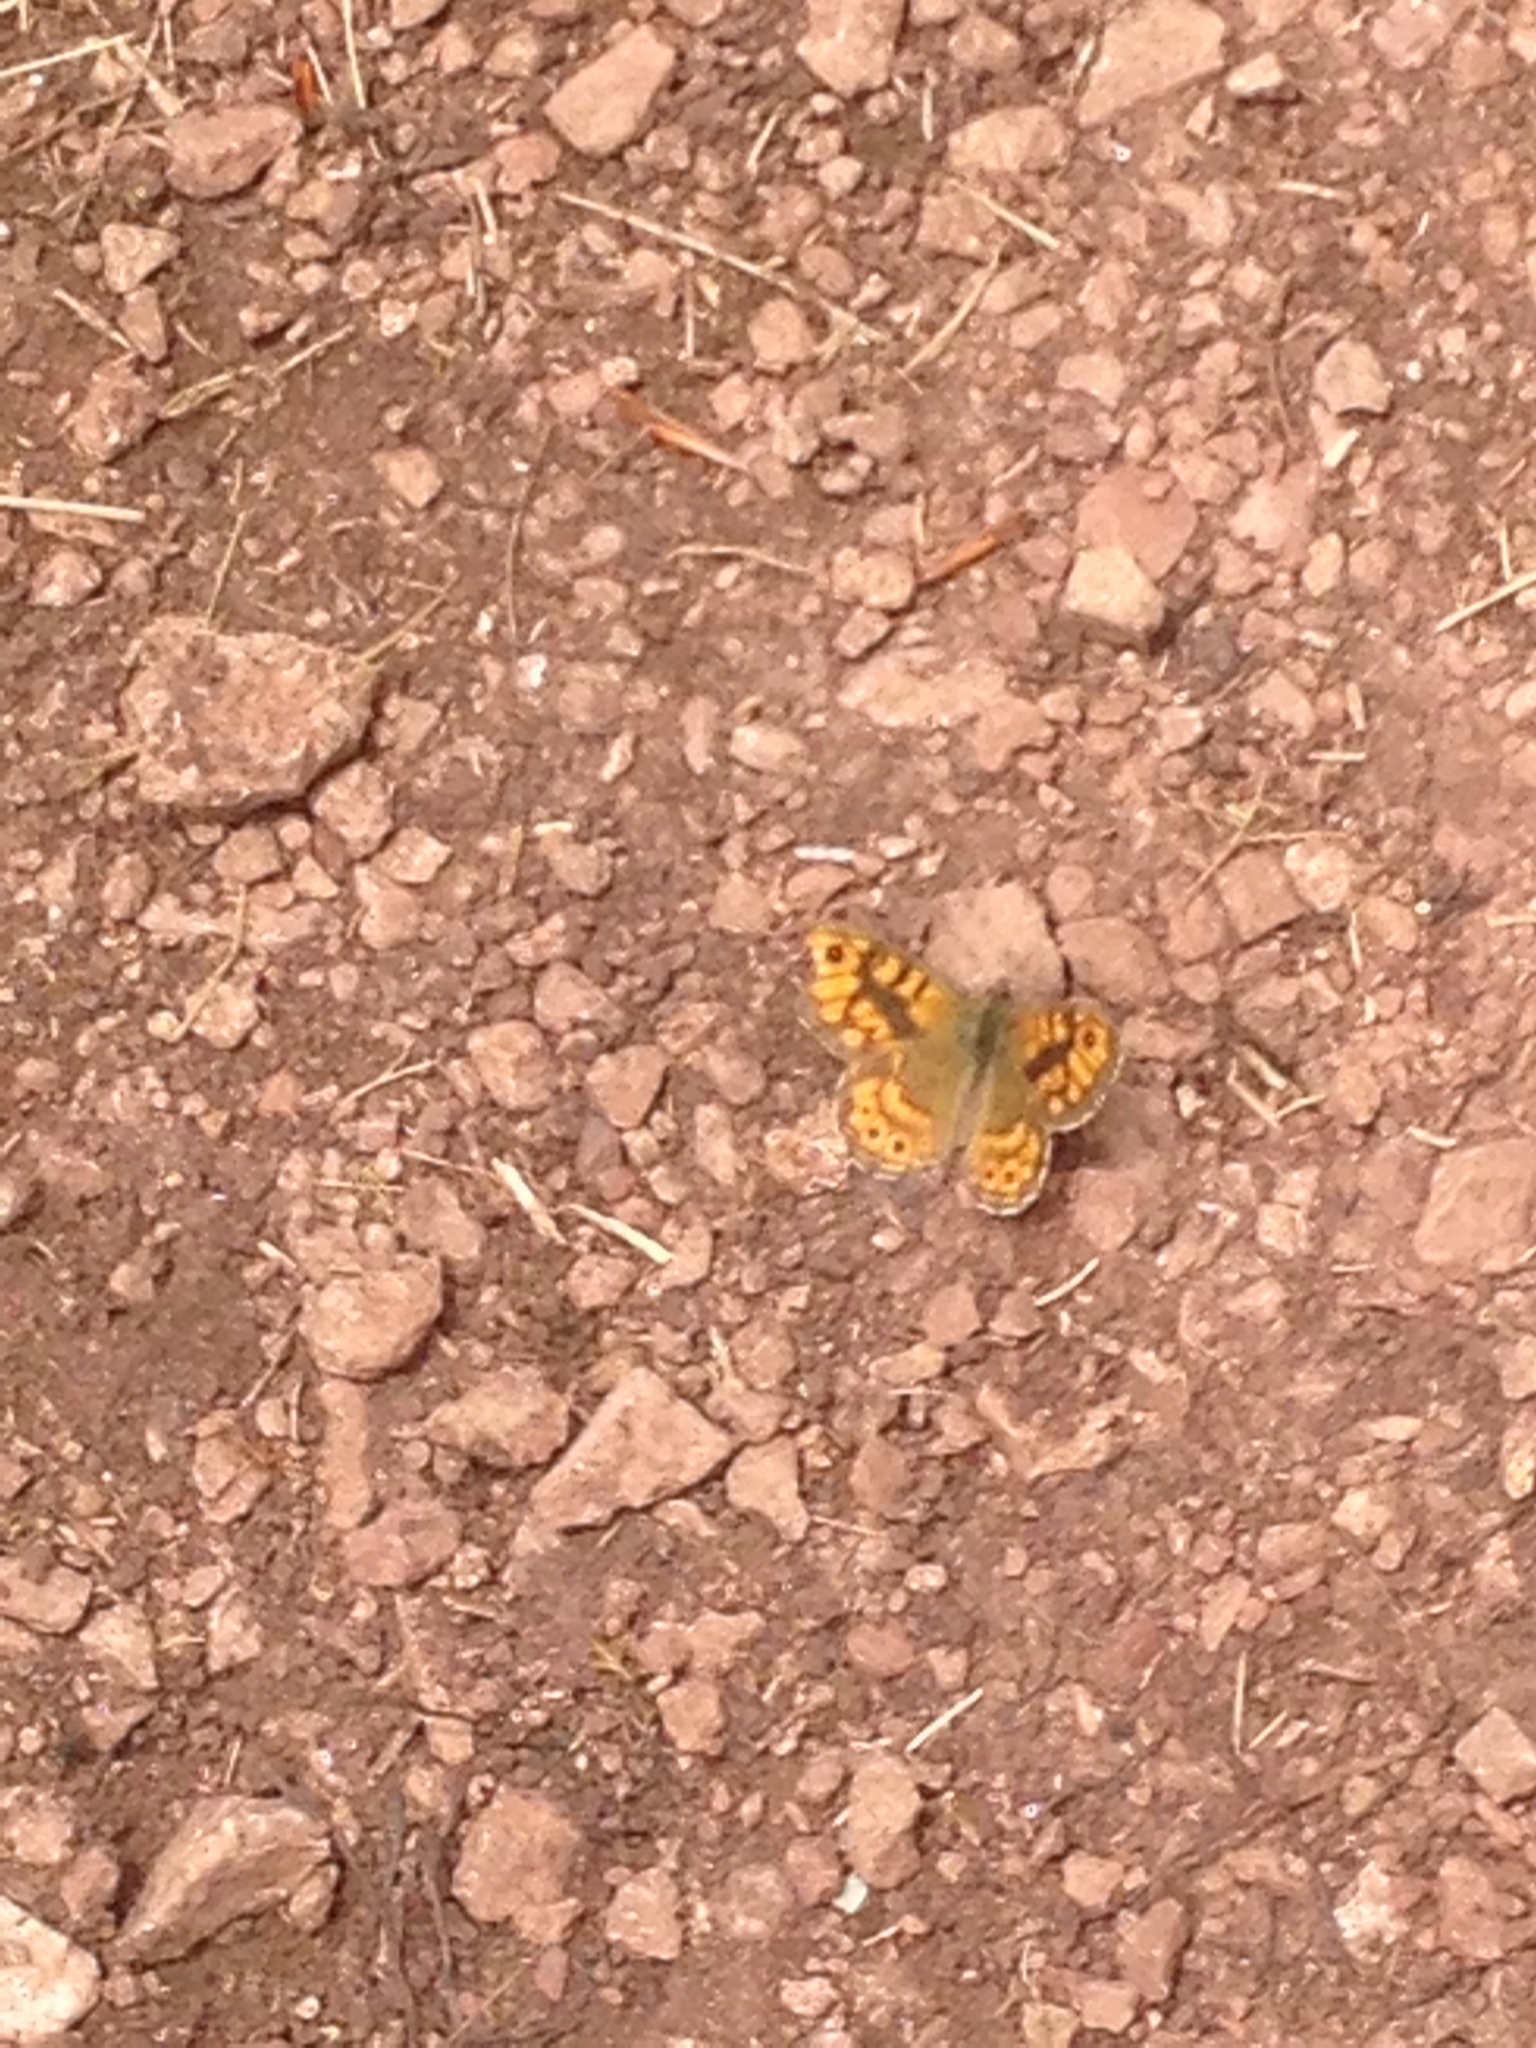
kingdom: Animalia
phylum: Arthropoda
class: Insecta
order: Lepidoptera
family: Nymphalidae
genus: Pararge
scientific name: Pararge Lasiommata megera
